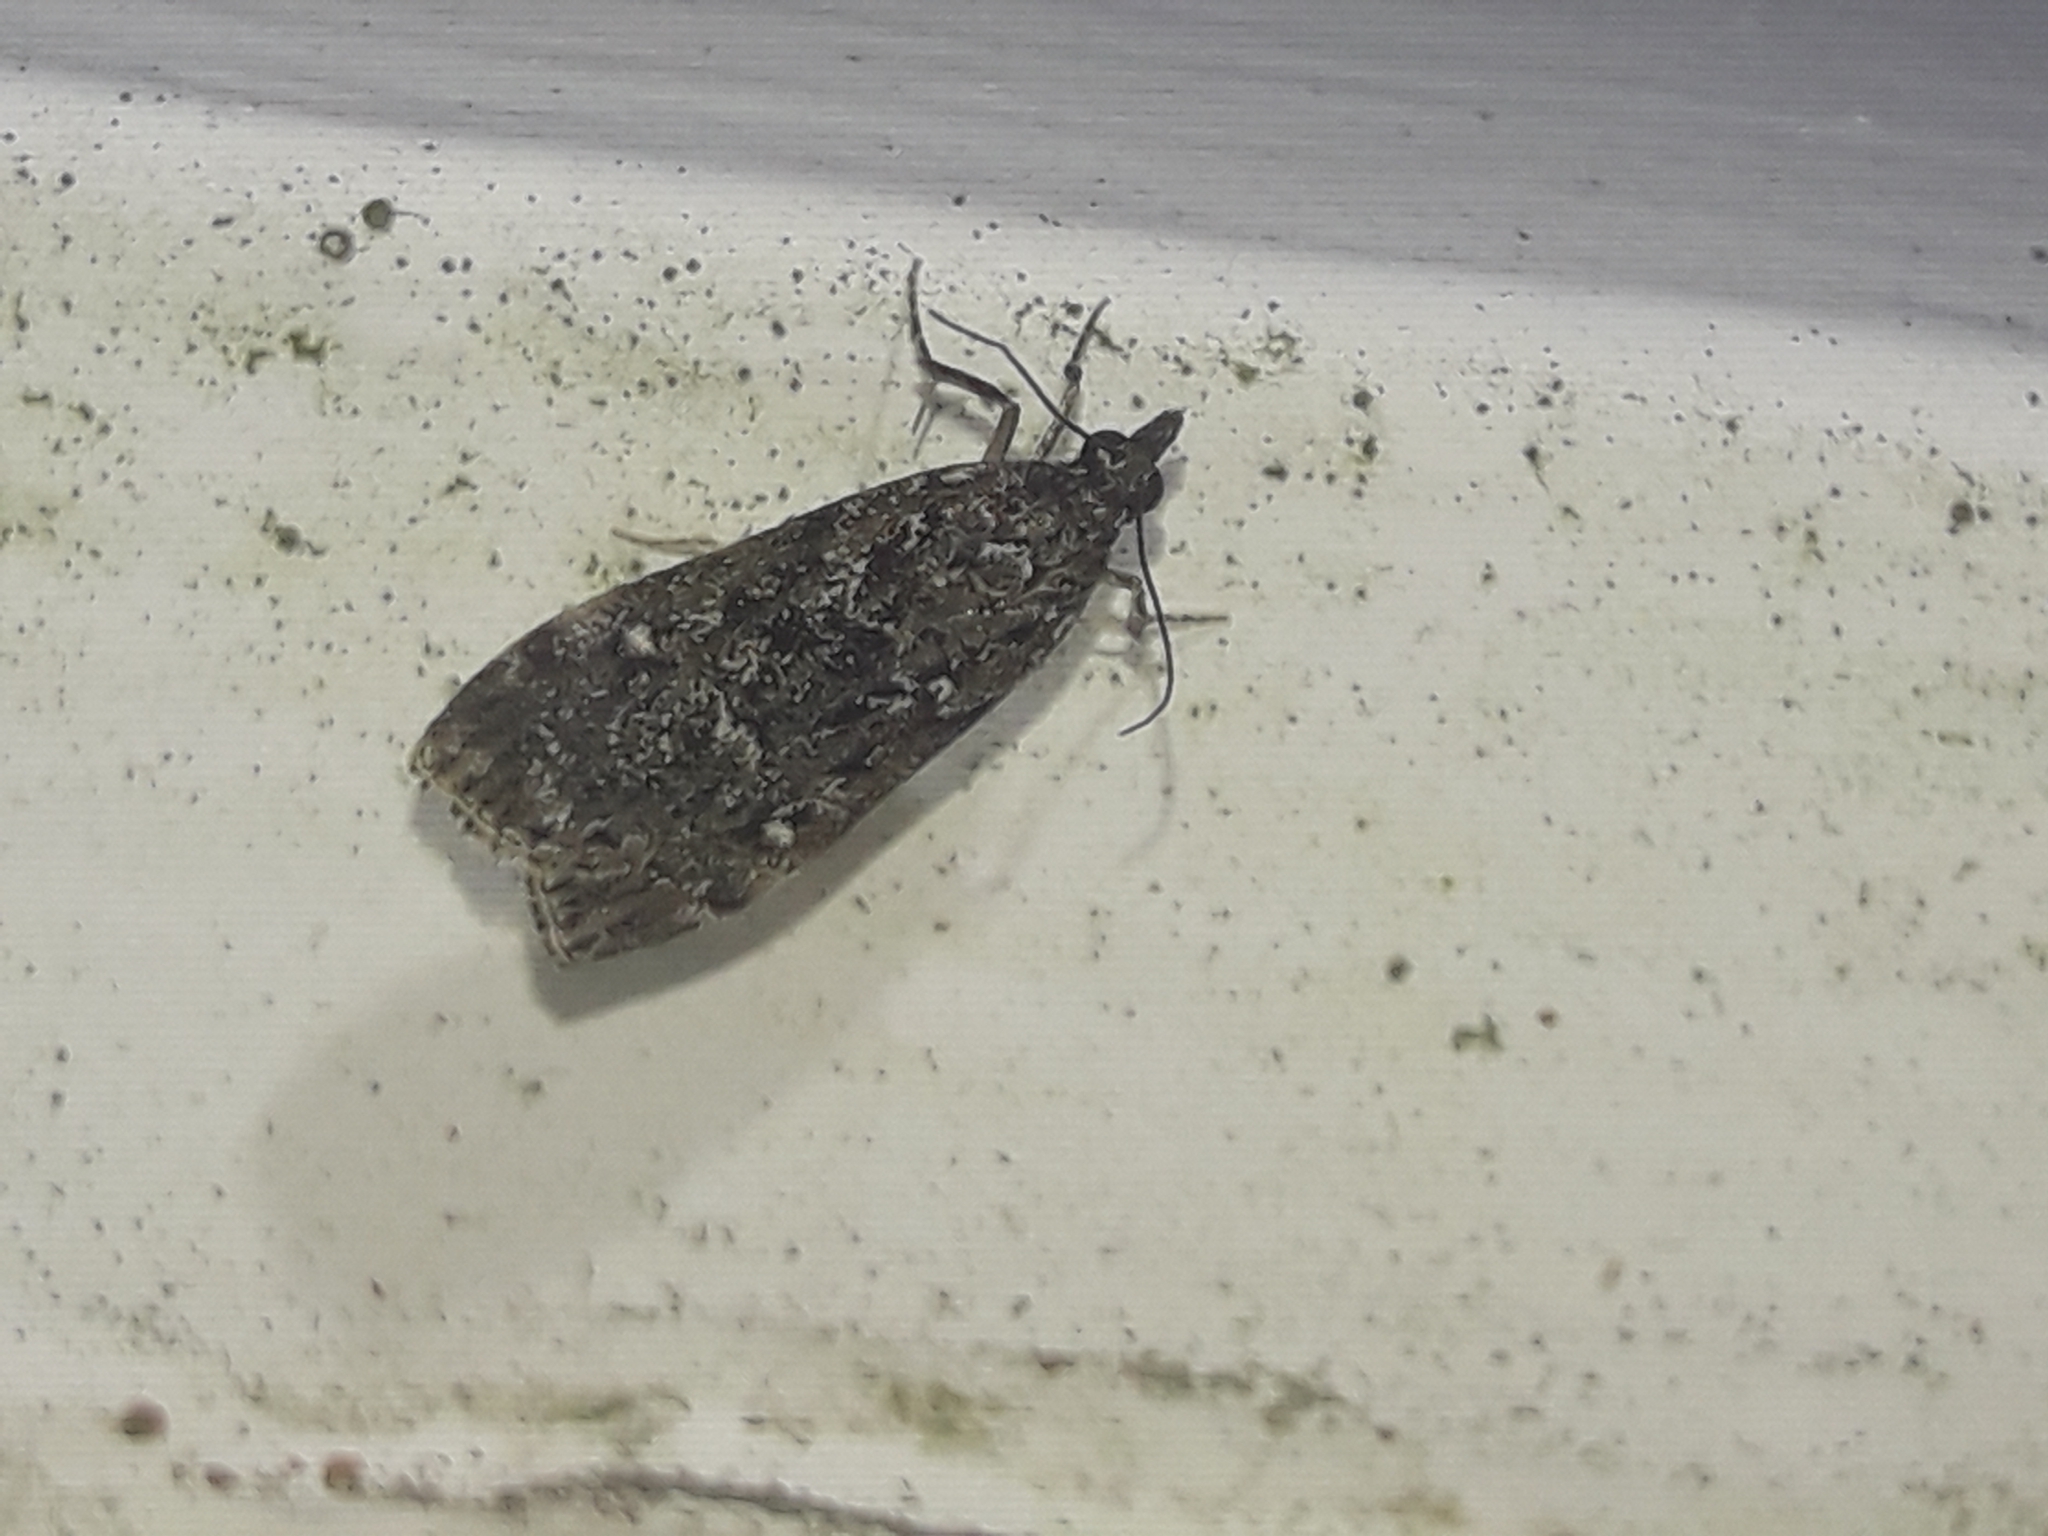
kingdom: Animalia
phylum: Arthropoda
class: Insecta
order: Lepidoptera
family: Crambidae
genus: Eudonia
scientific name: Eudonia philerga
